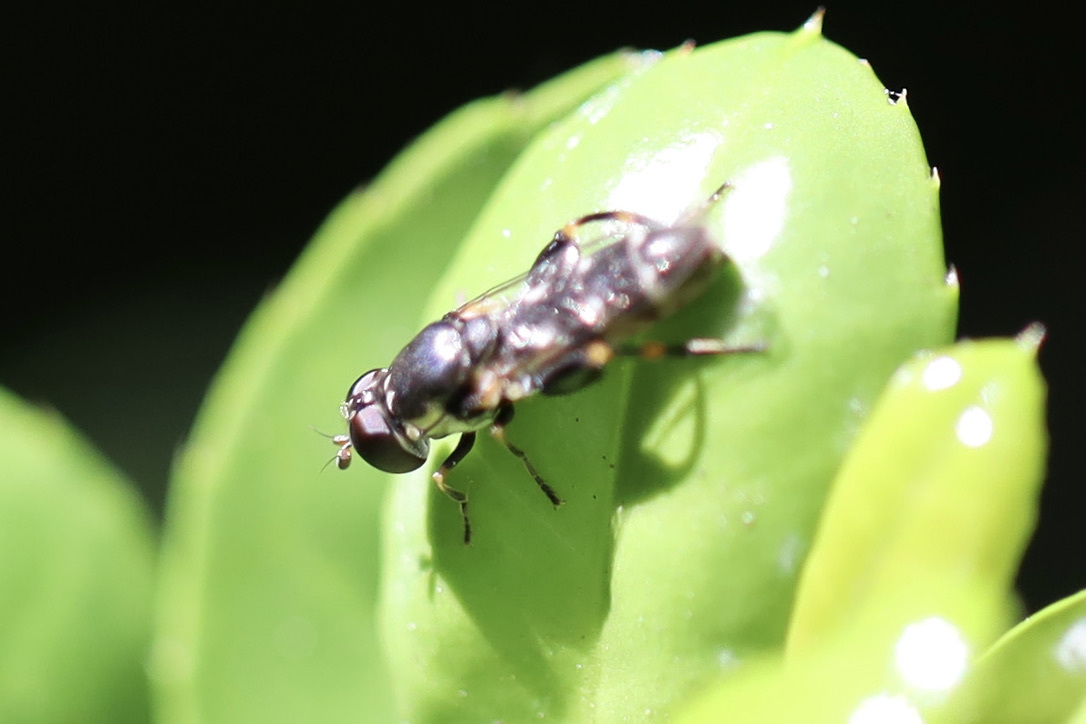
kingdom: Animalia
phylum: Arthropoda
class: Insecta
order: Diptera
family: Syrphidae
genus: Syritta
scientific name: Syritta pipiens
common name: Hover fly
